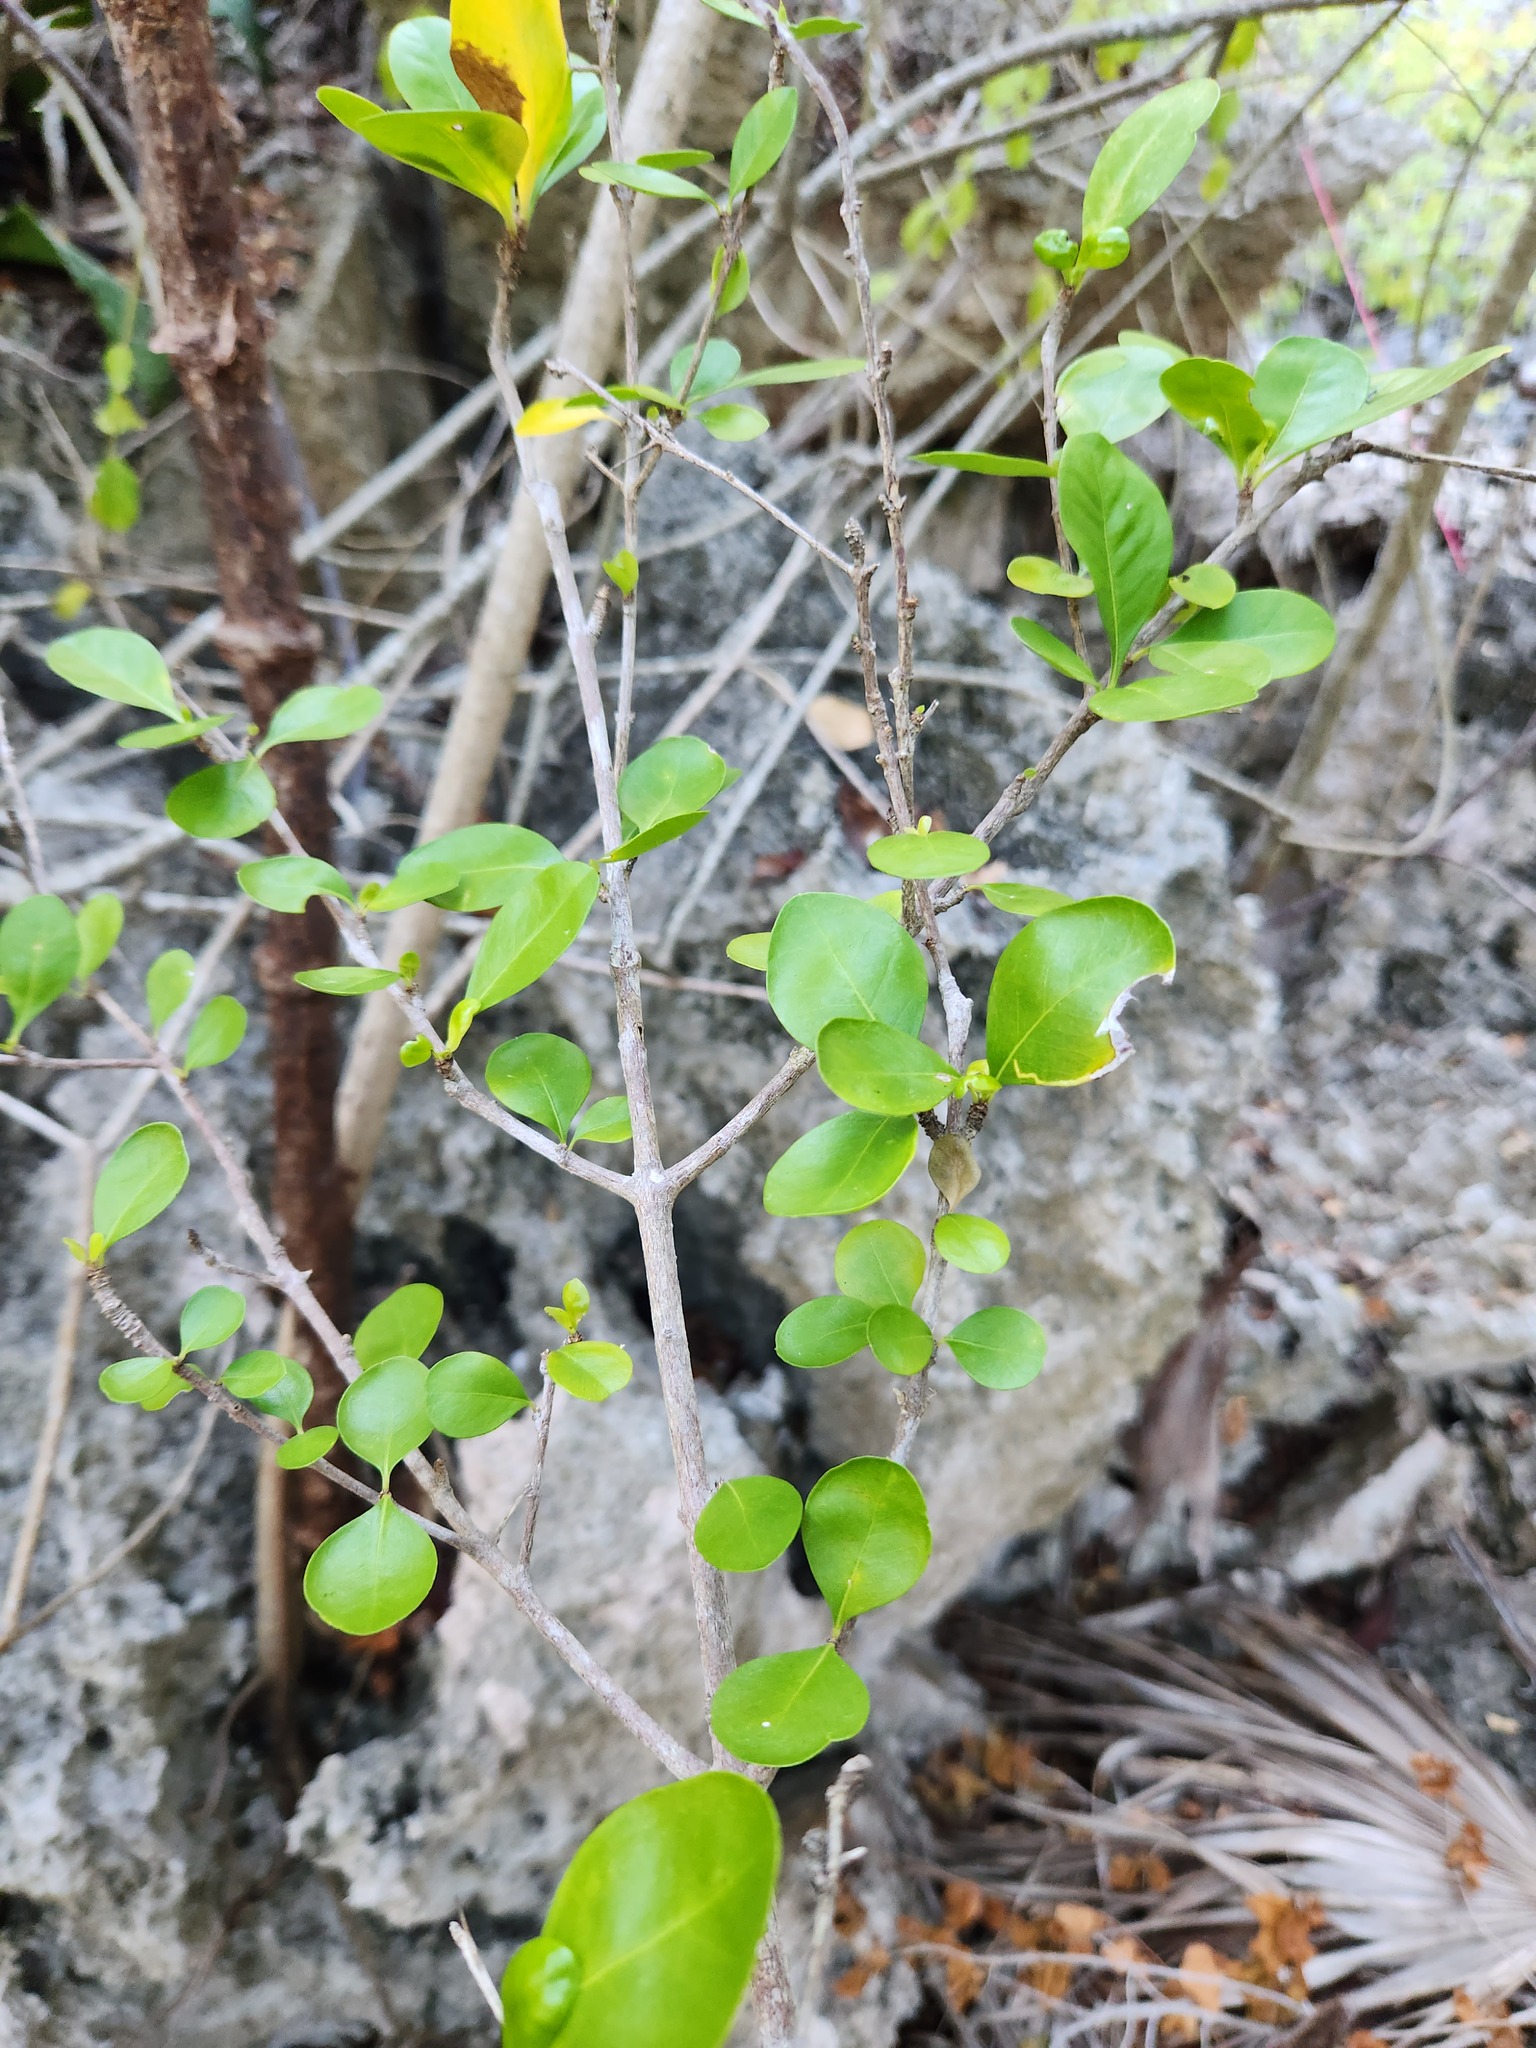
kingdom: Plantae
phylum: Tracheophyta
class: Magnoliopsida
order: Gentianales
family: Rubiaceae
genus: Randia
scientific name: Randia aculeata
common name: Inkberry
